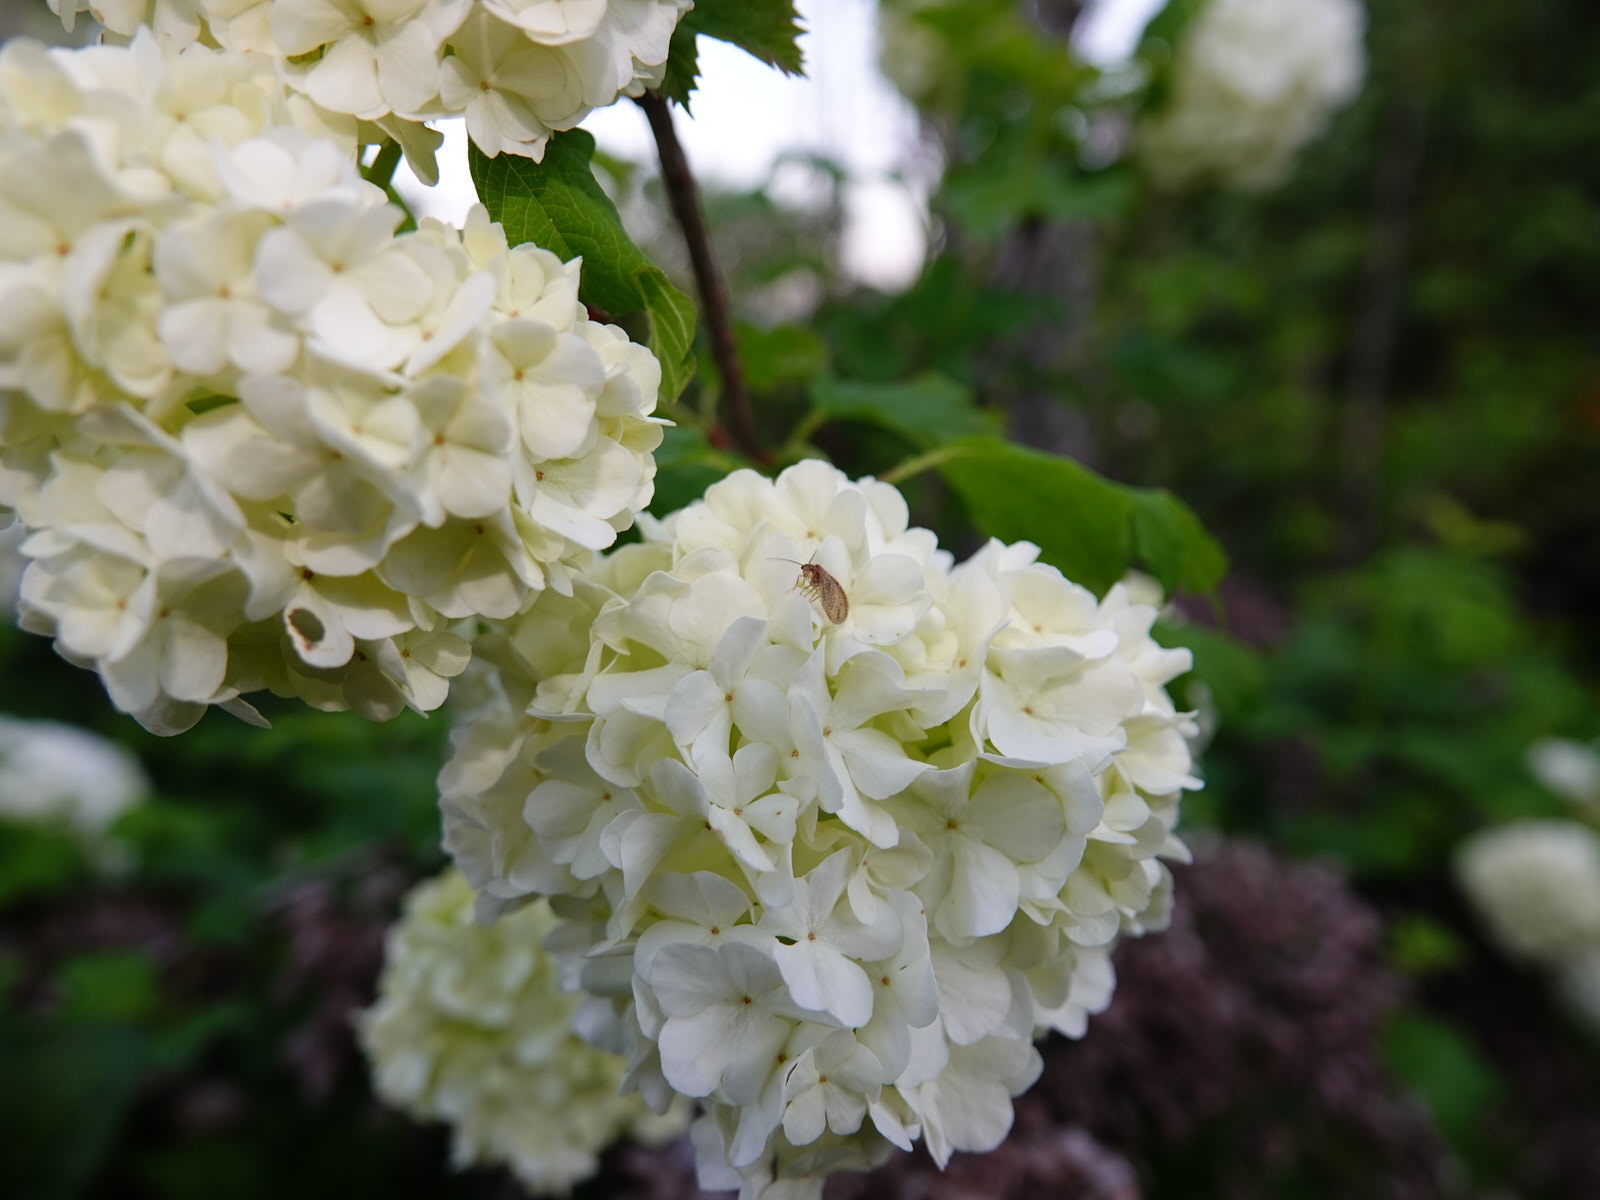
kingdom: Animalia
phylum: Arthropoda
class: Insecta
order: Neuroptera
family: Hemerobiidae
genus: Micromus
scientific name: Micromus tasmaniae
